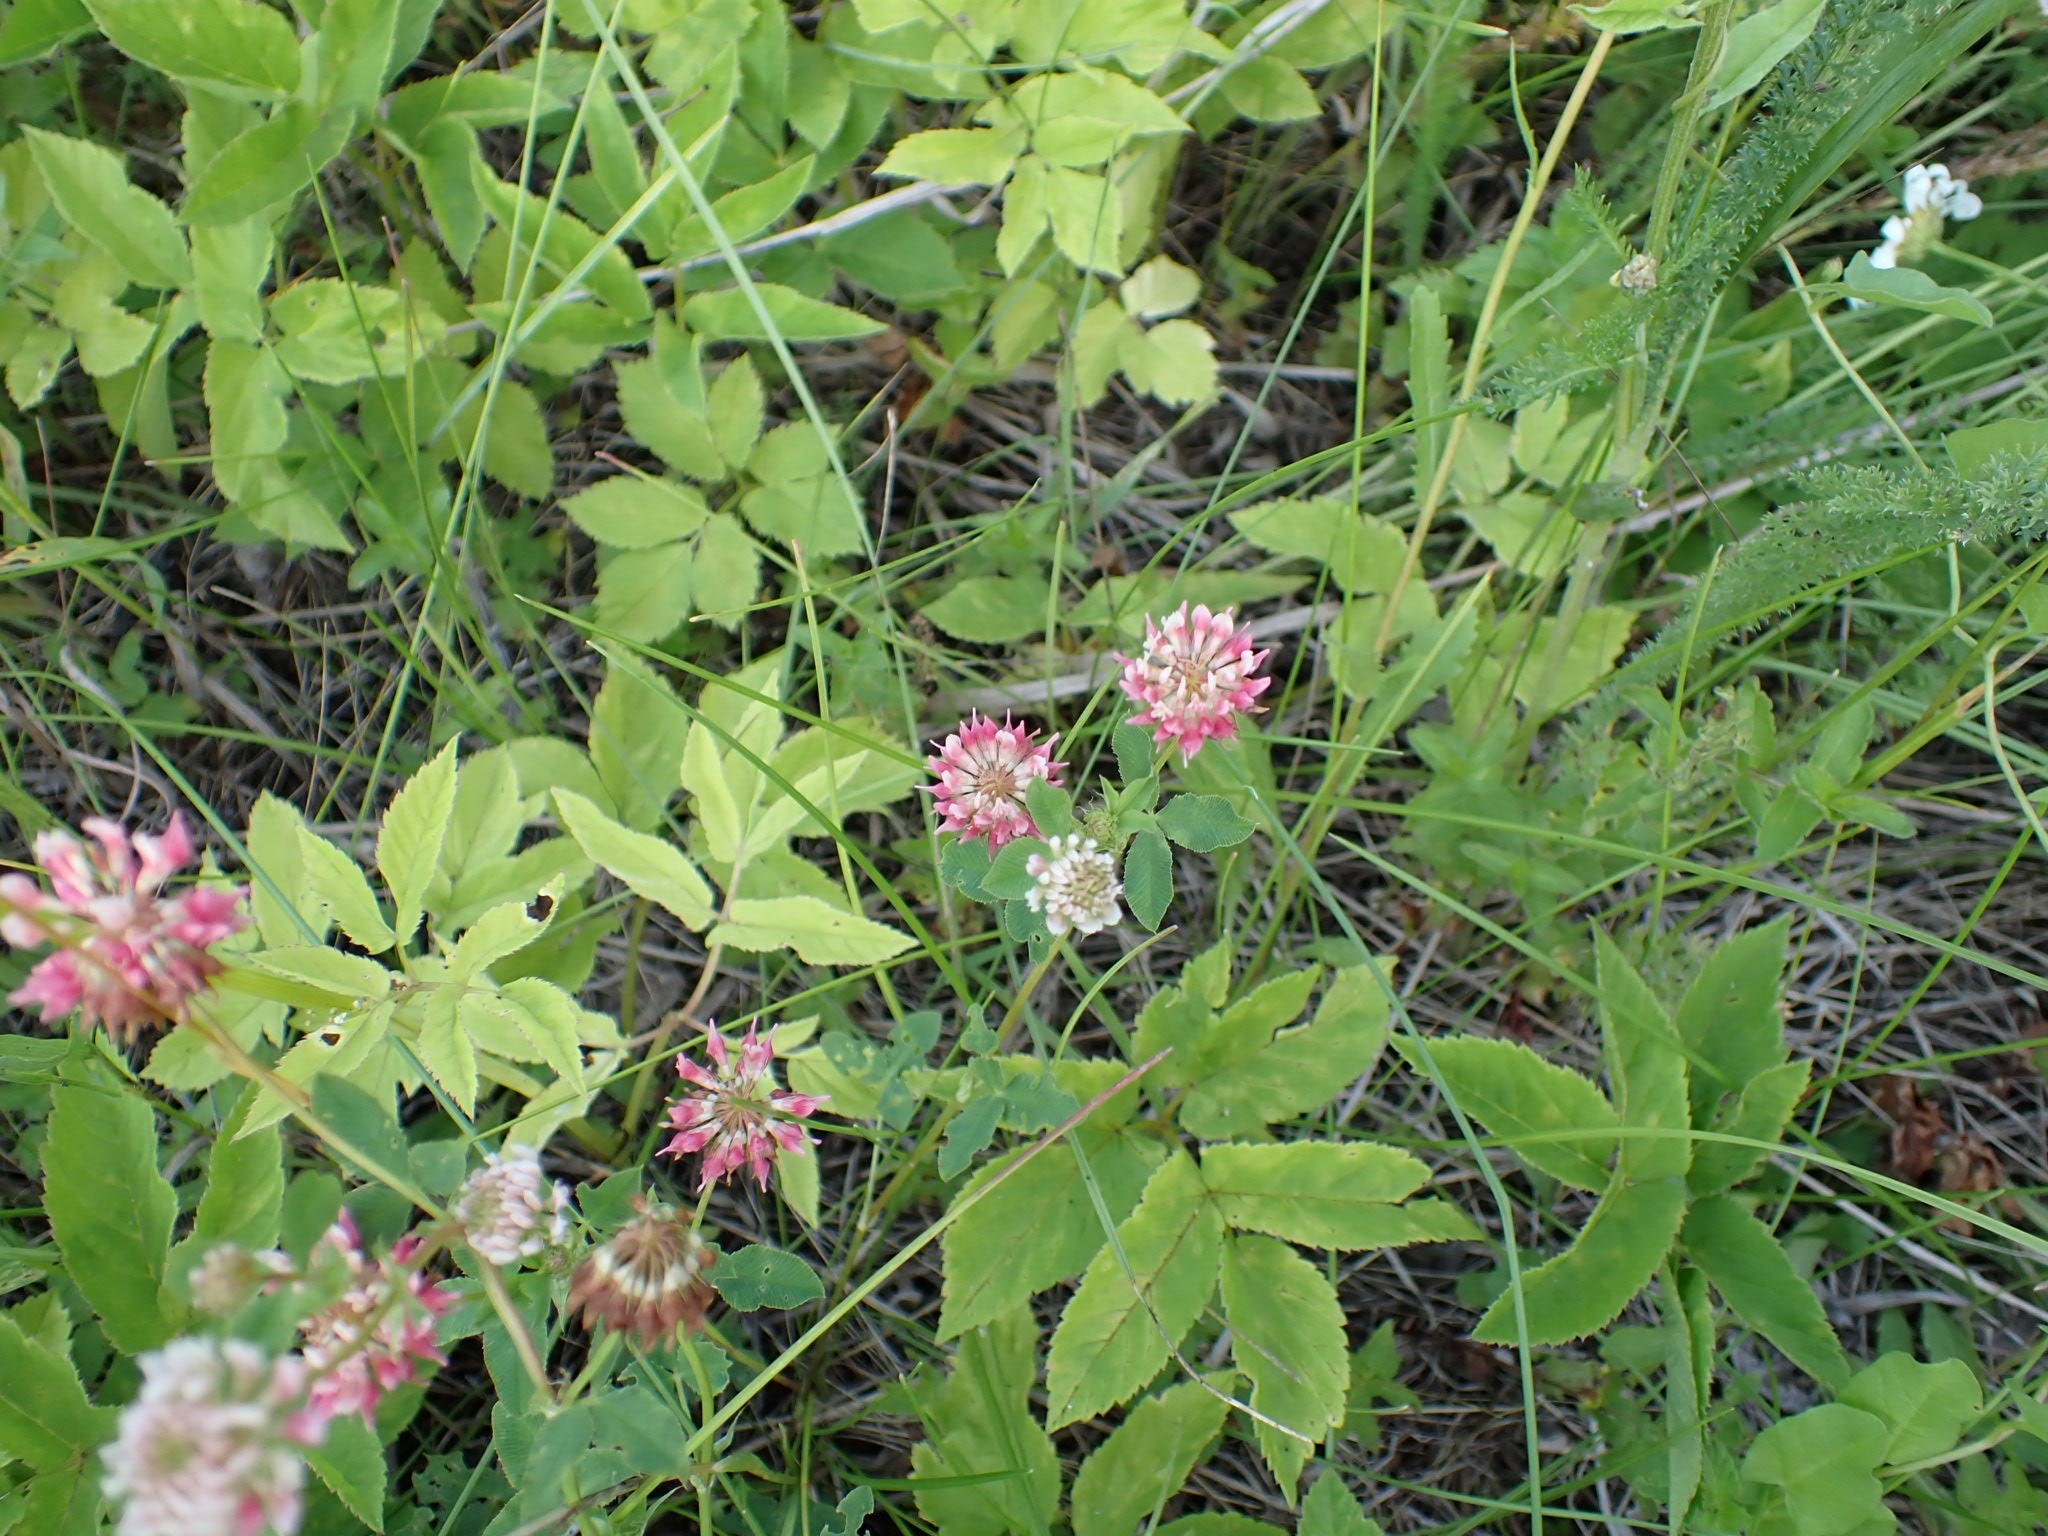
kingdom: Plantae
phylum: Tracheophyta
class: Magnoliopsida
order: Fabales
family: Fabaceae
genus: Trifolium
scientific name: Trifolium hybridum
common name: Alsike clover
